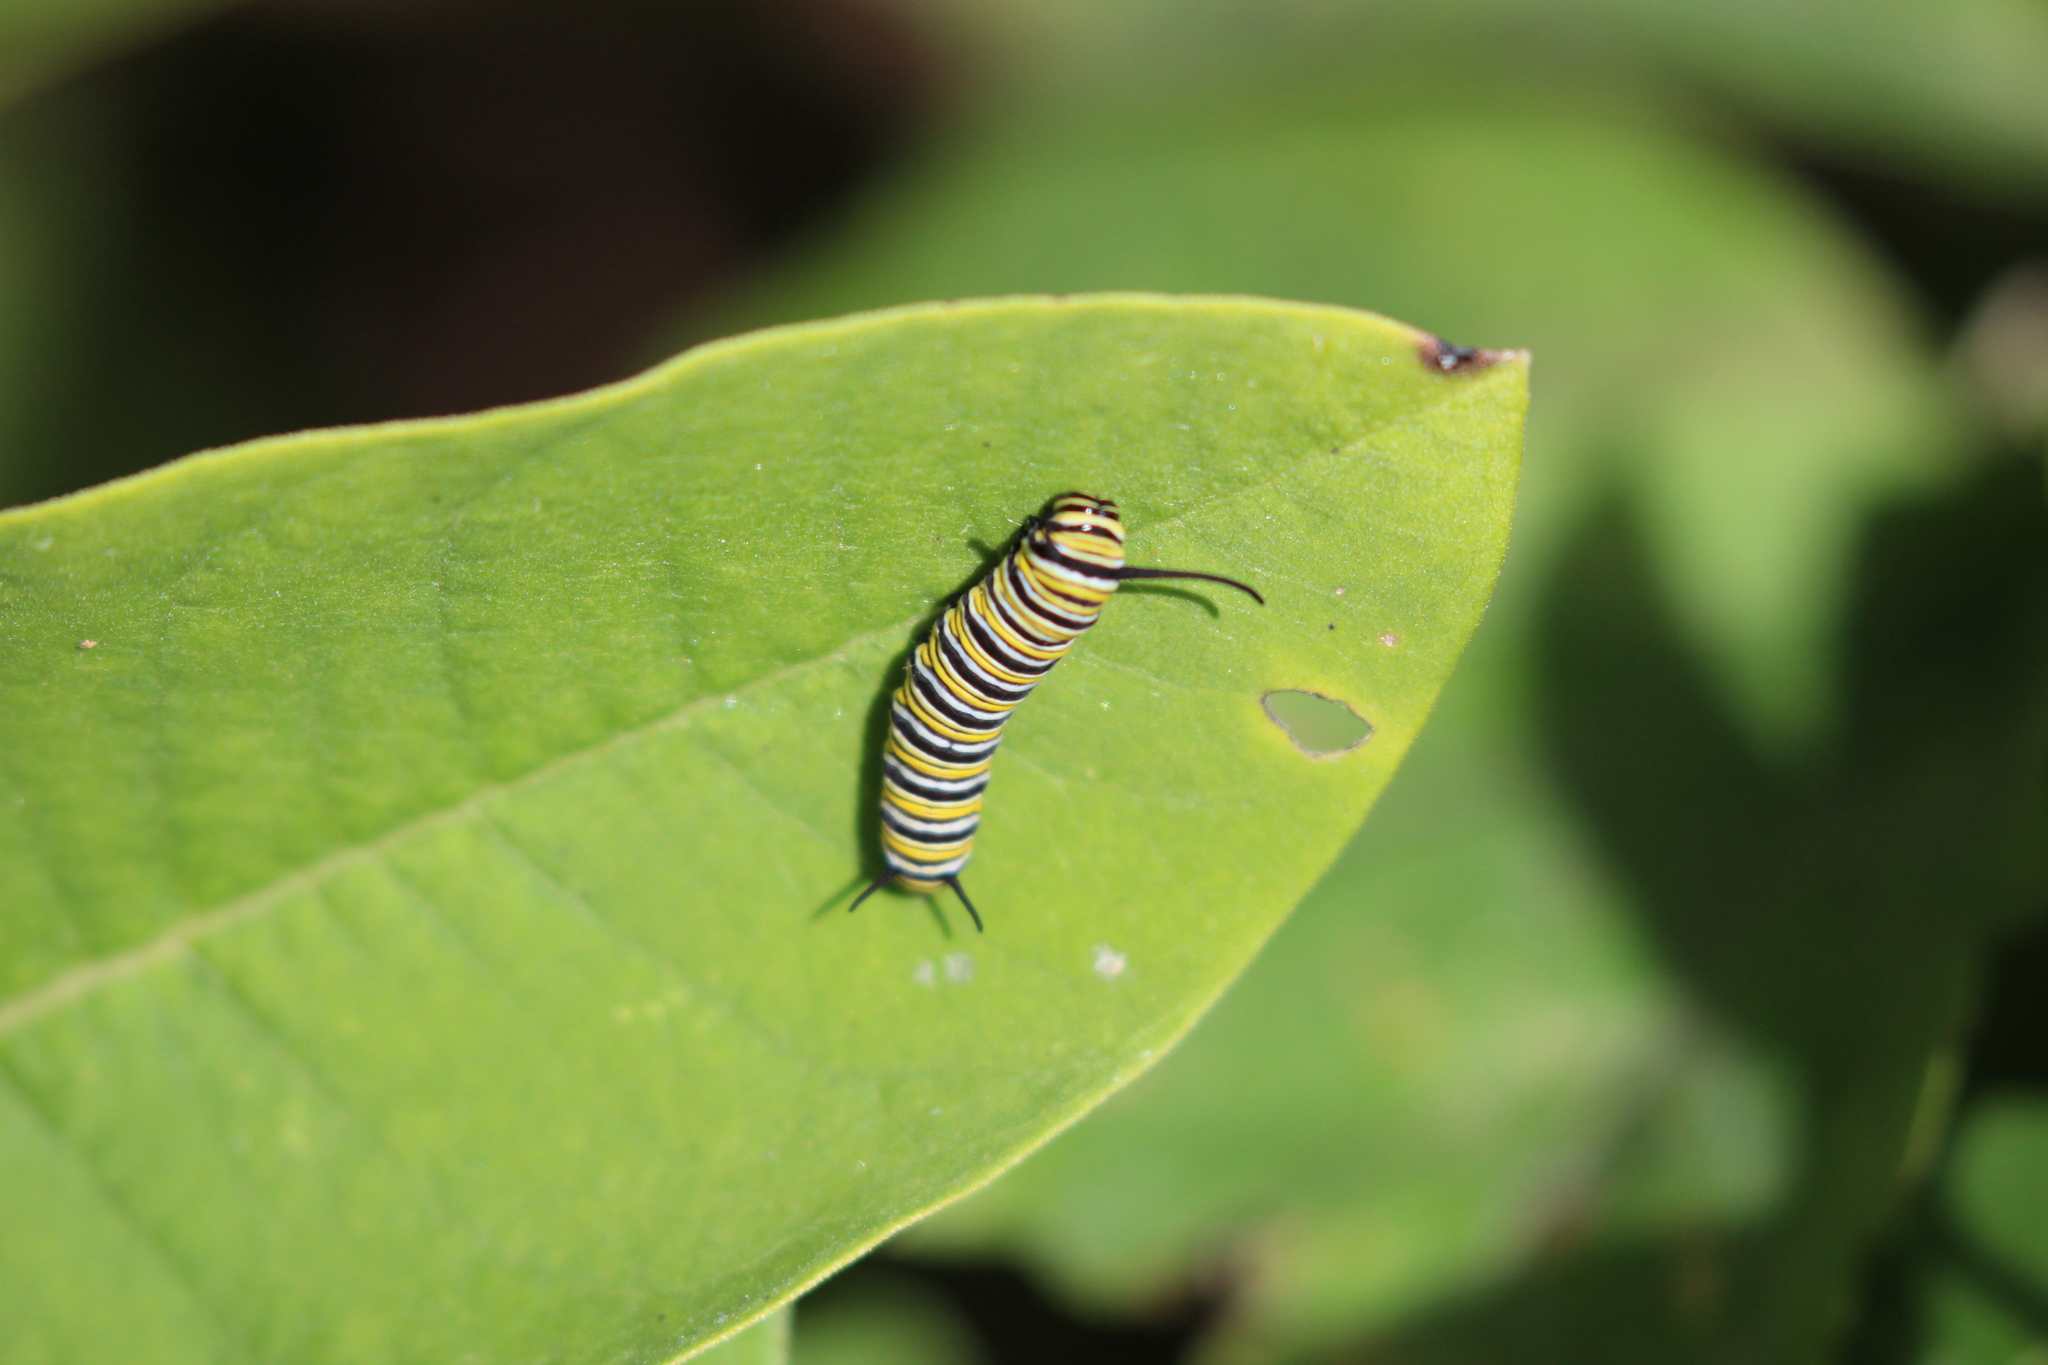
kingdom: Animalia
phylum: Arthropoda
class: Insecta
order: Lepidoptera
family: Nymphalidae
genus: Danaus
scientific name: Danaus plexippus
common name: Monarch
